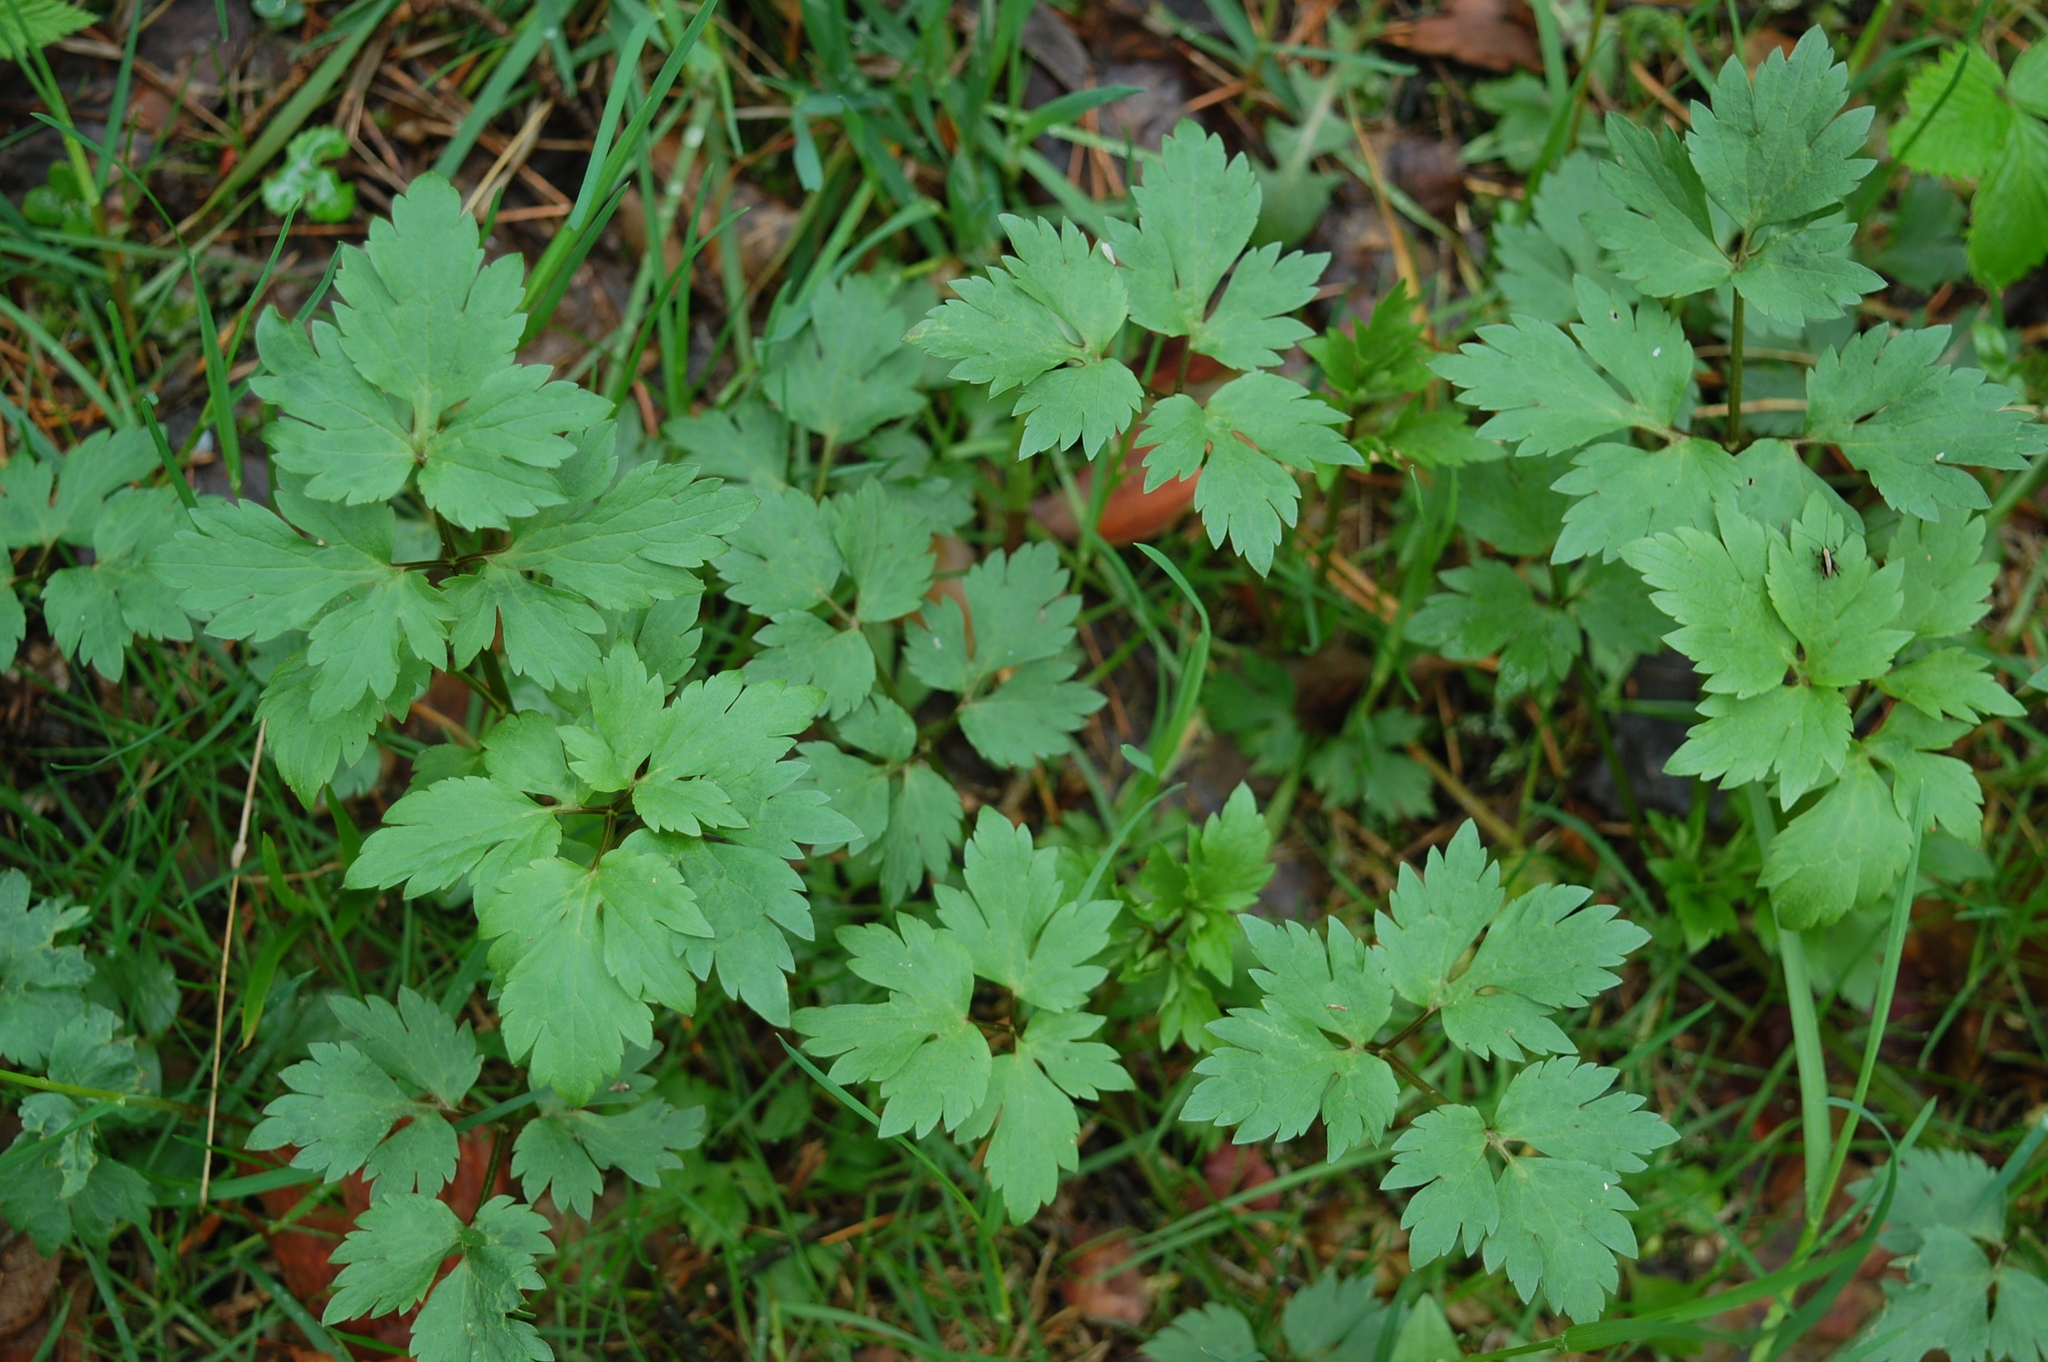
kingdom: Plantae
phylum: Tracheophyta
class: Magnoliopsida
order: Ranunculales
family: Ranunculaceae
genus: Ranunculus
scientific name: Ranunculus repens
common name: Creeping buttercup
